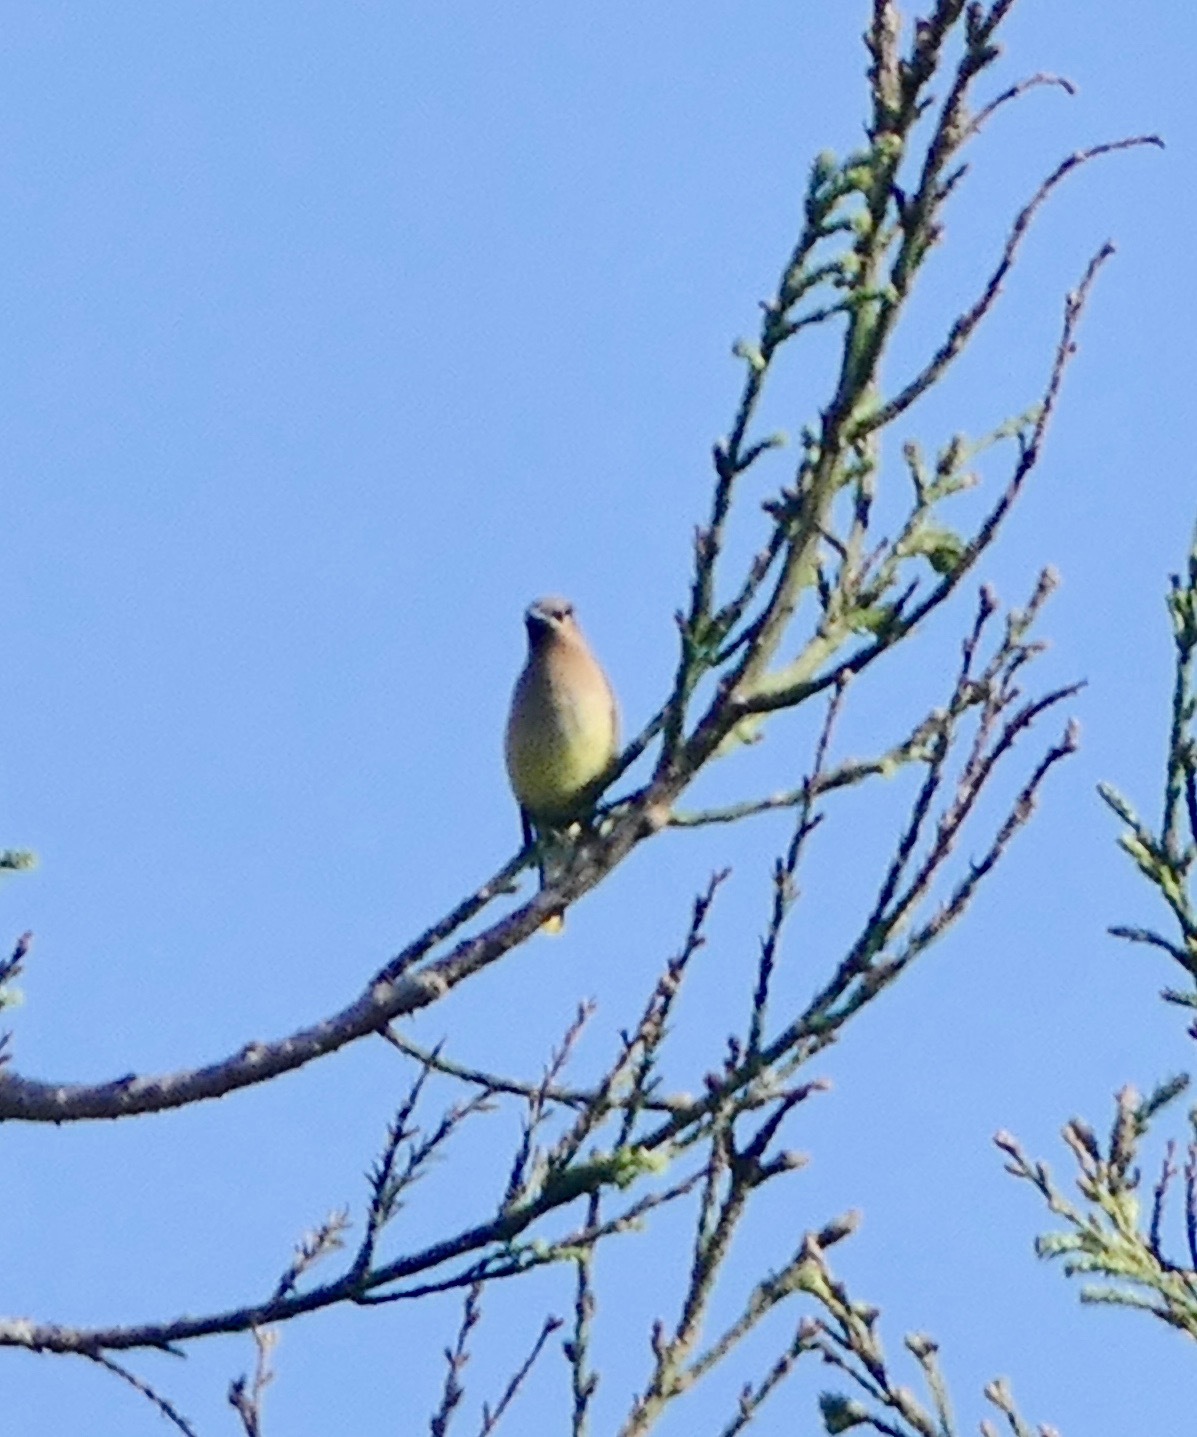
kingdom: Animalia
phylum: Chordata
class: Aves
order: Passeriformes
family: Bombycillidae
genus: Bombycilla
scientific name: Bombycilla cedrorum
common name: Cedar waxwing
